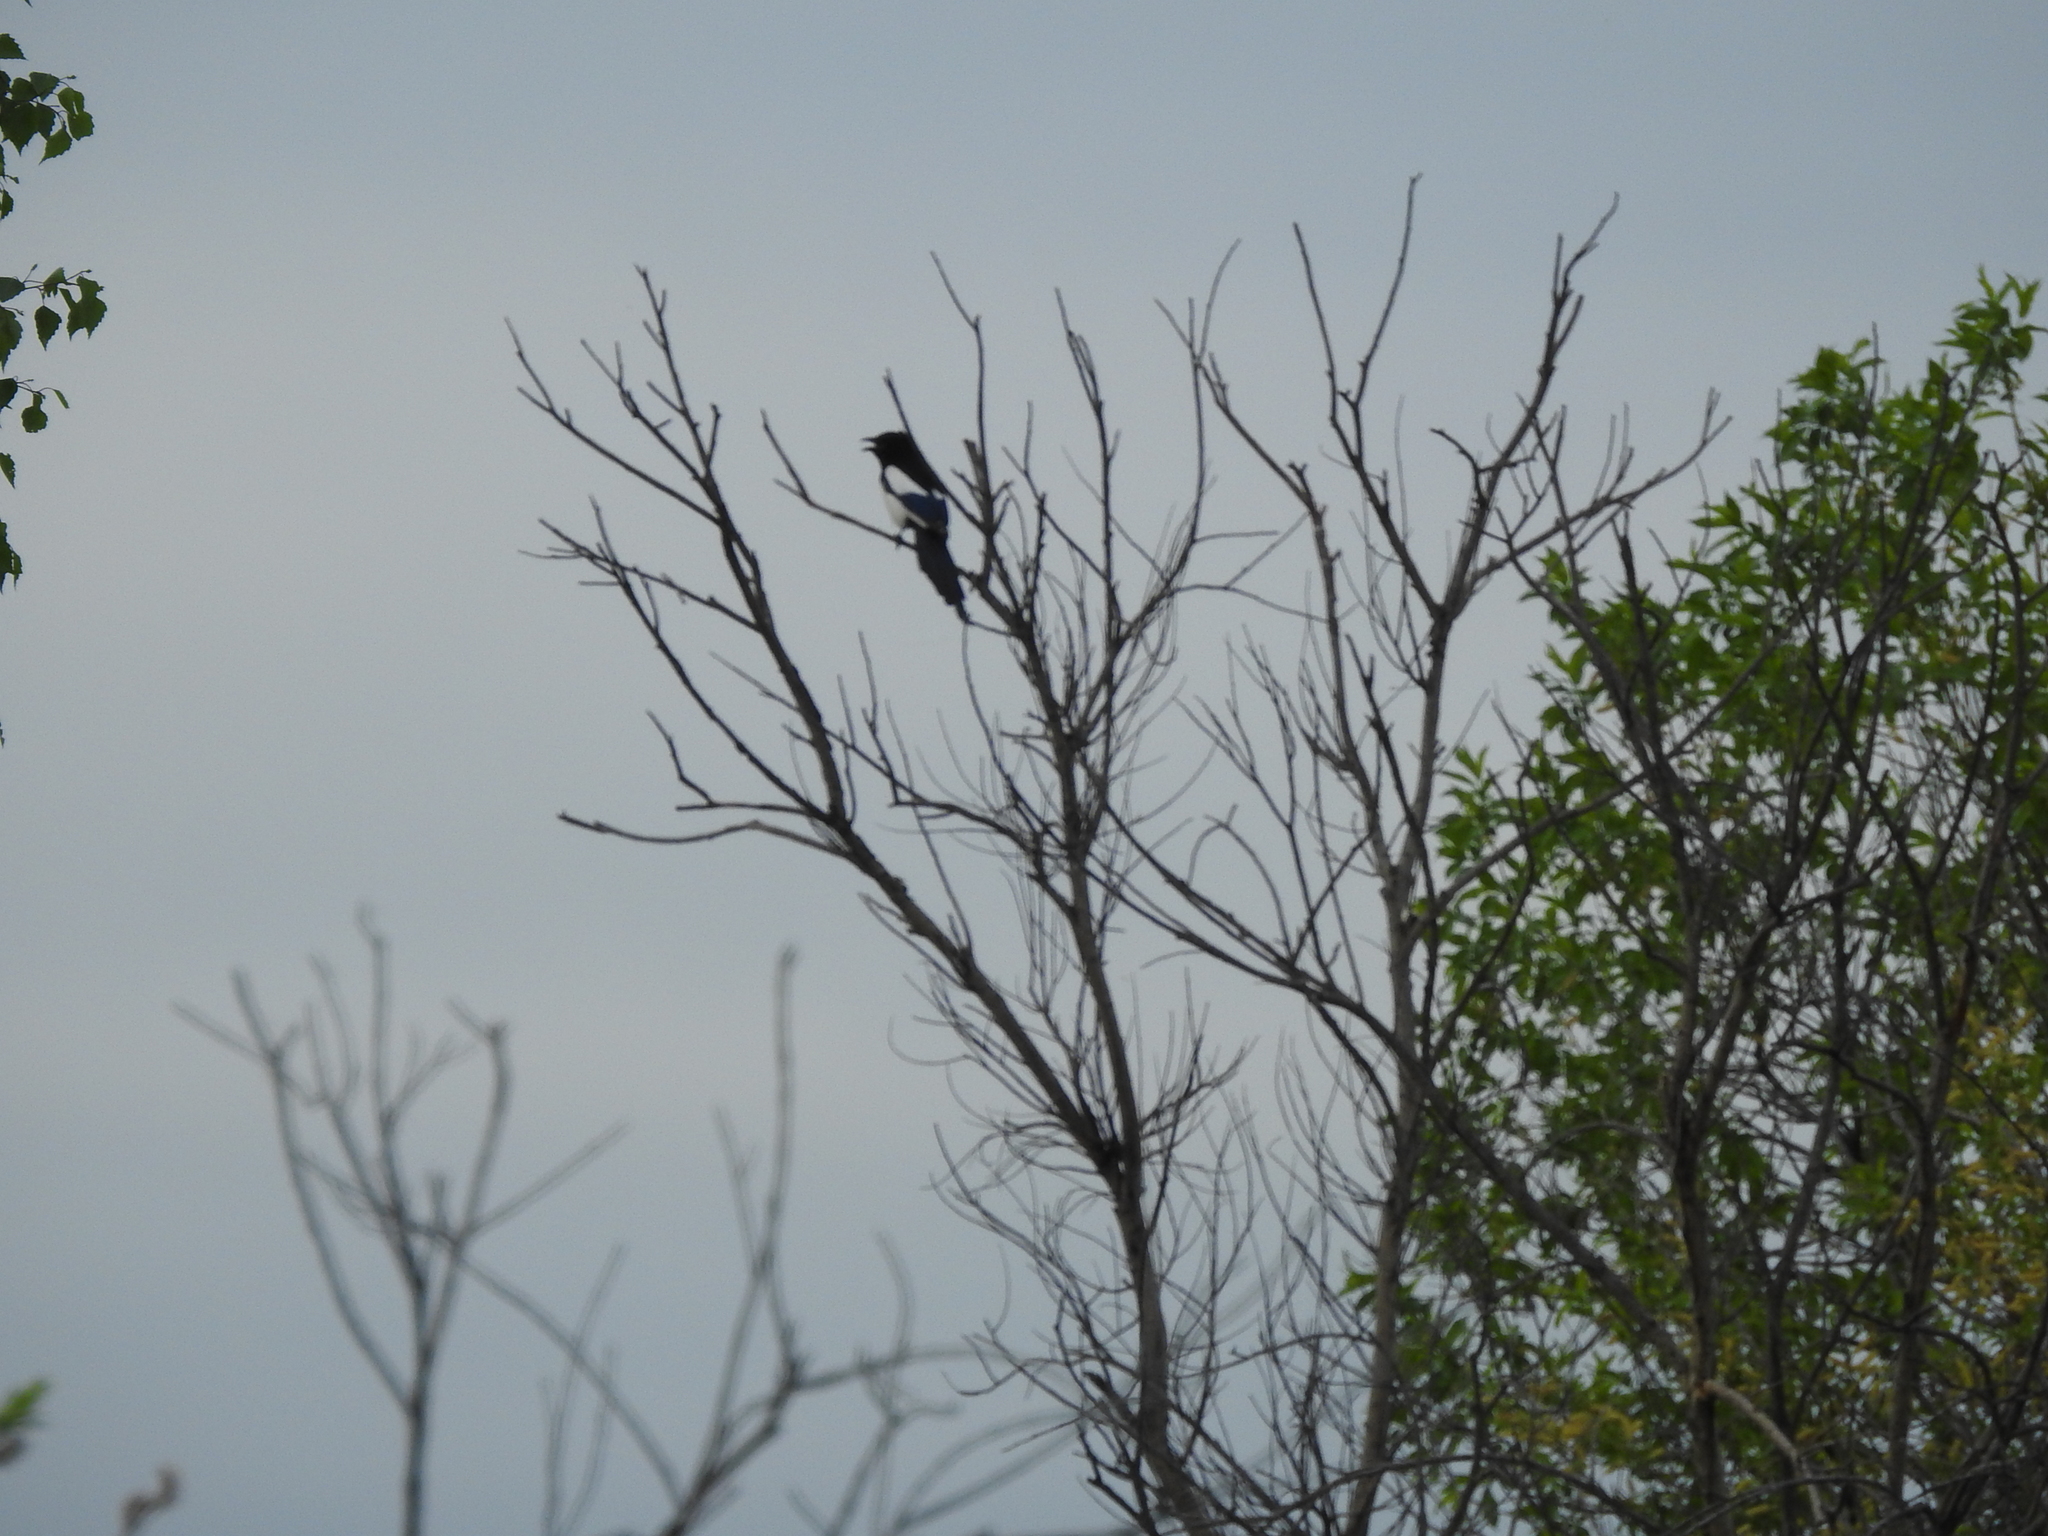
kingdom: Animalia
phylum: Chordata
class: Aves
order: Passeriformes
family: Corvidae
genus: Pica
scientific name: Pica pica
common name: Eurasian magpie
